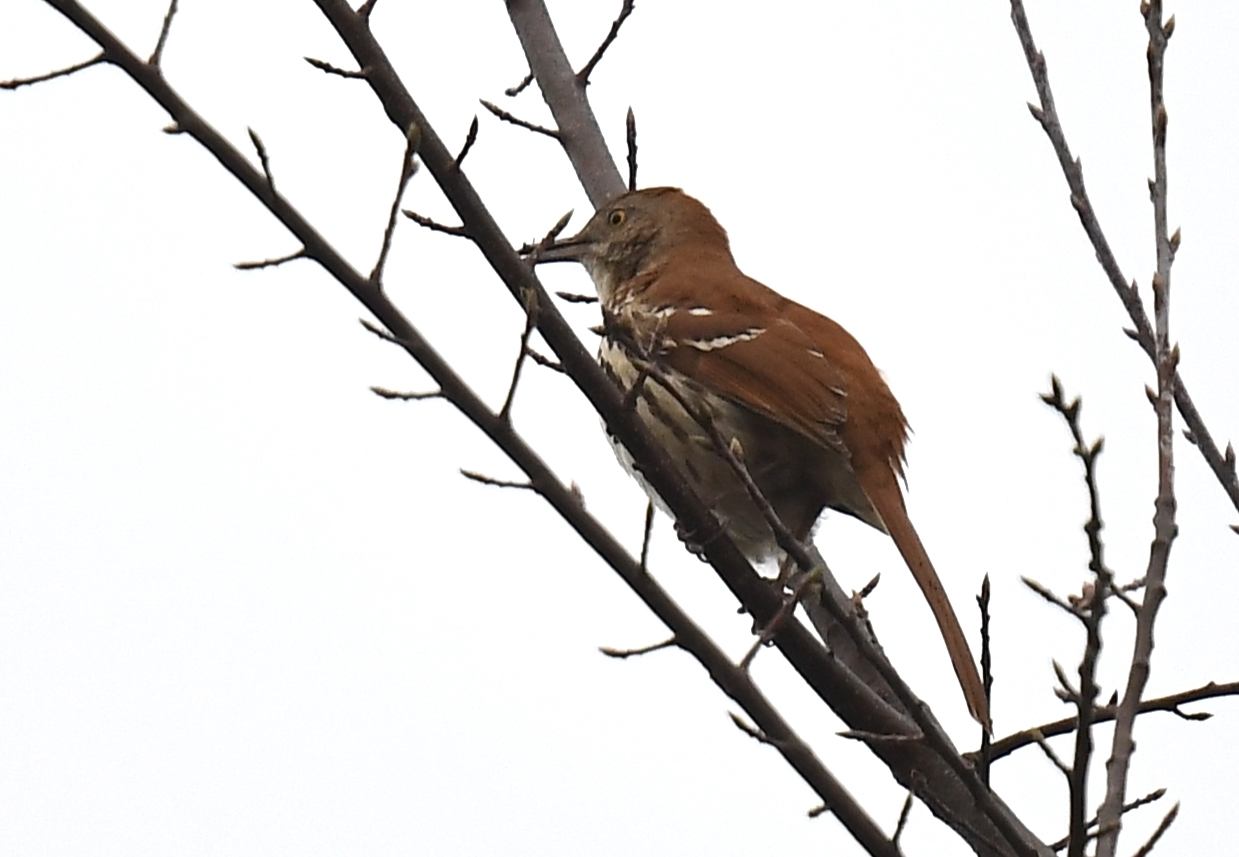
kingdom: Animalia
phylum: Chordata
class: Aves
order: Passeriformes
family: Mimidae
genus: Toxostoma
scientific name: Toxostoma rufum
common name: Brown thrasher
